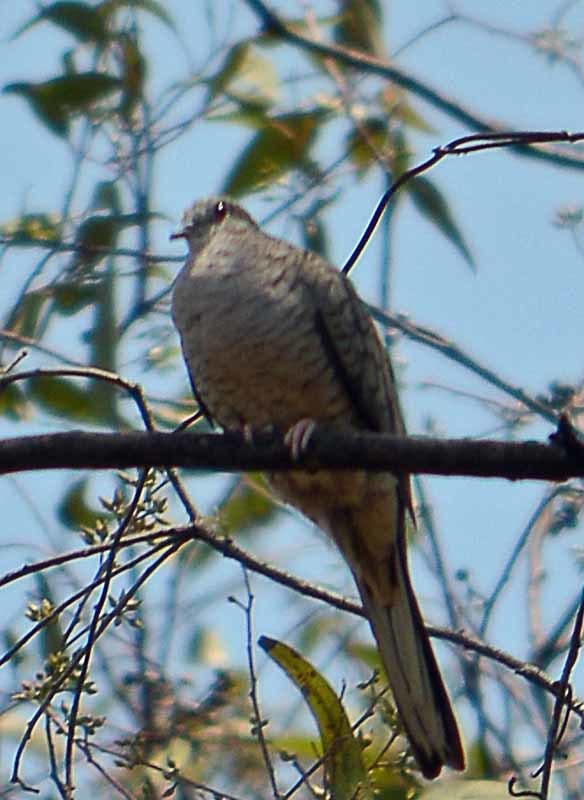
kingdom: Animalia
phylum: Chordata
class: Aves
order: Columbiformes
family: Columbidae
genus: Columbina
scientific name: Columbina inca
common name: Inca dove
